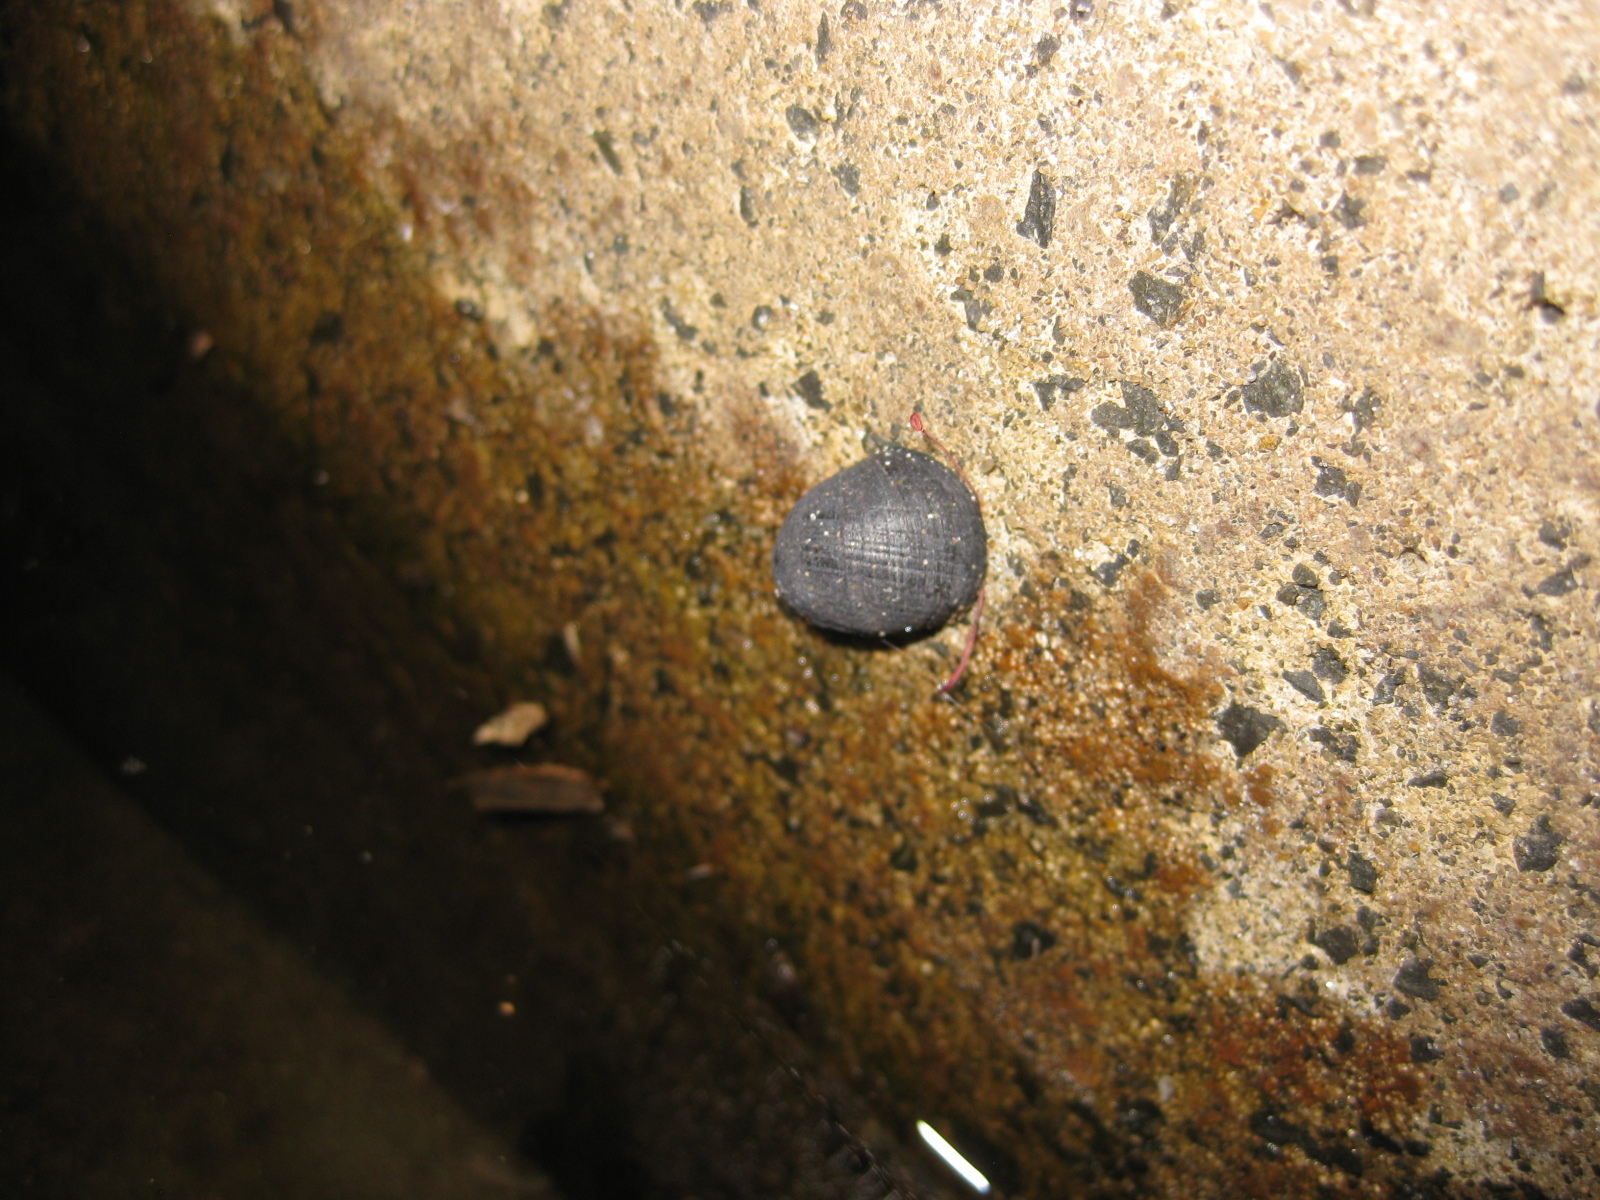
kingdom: Animalia
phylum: Mollusca
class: Gastropoda
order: Cycloneritida
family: Neritidae
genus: Nerita
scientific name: Nerita melanotragus
